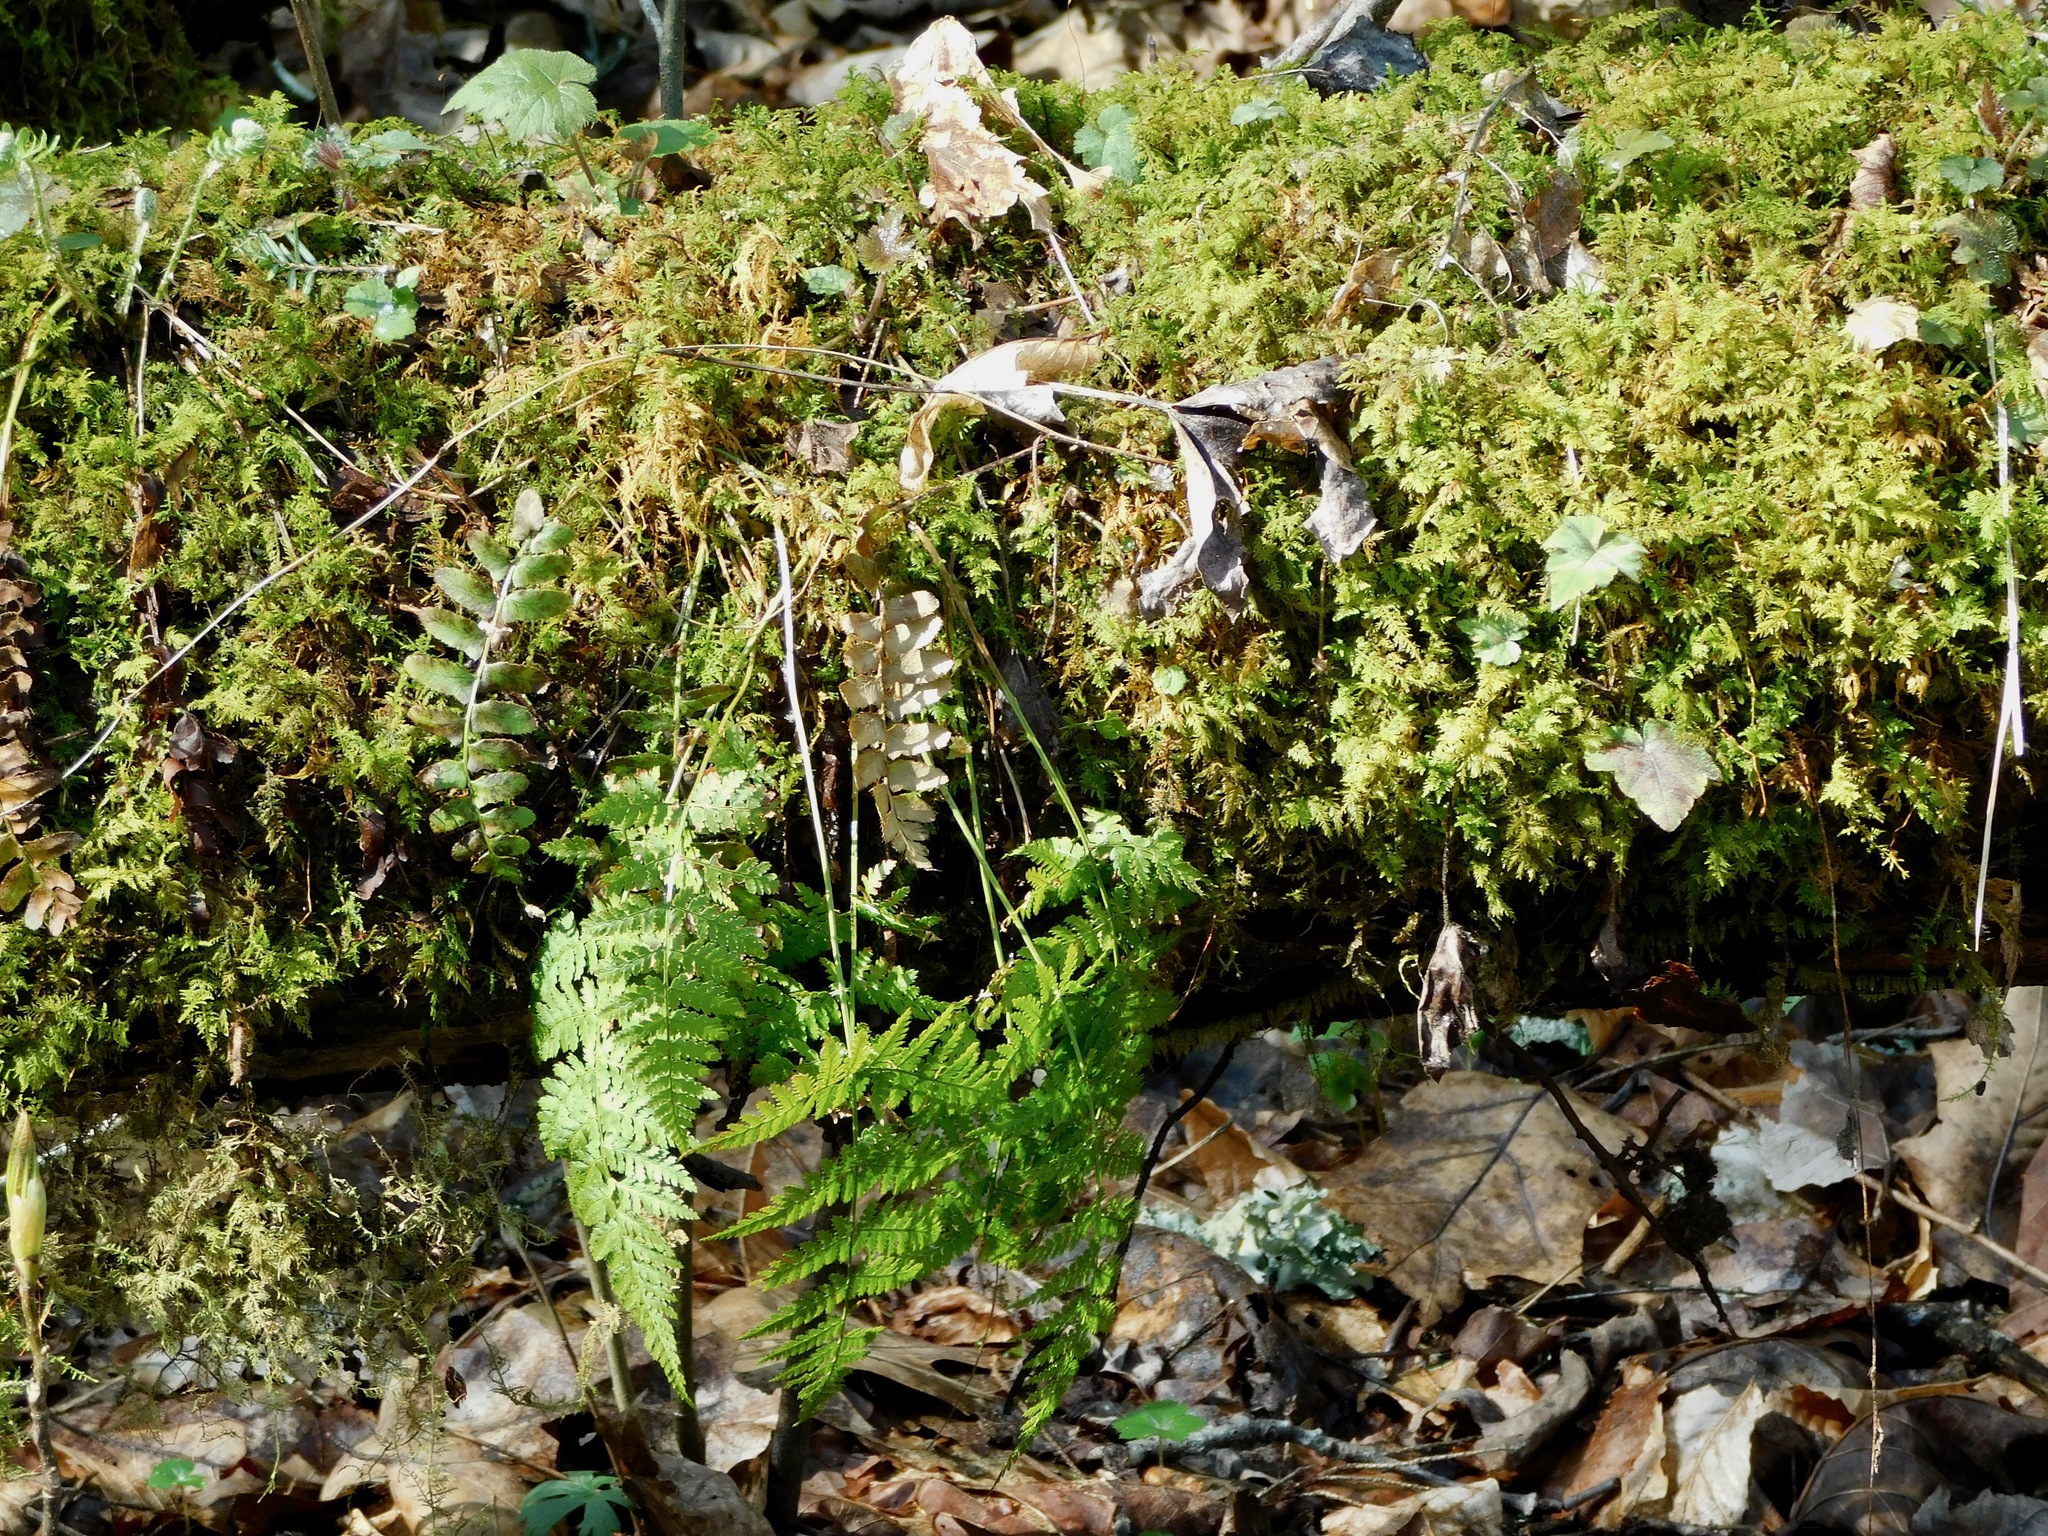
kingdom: Plantae
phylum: Tracheophyta
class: Polypodiopsida
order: Polypodiales
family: Dryopteridaceae
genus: Dryopteris
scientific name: Dryopteris intermedia
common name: Evergreen wood fern
